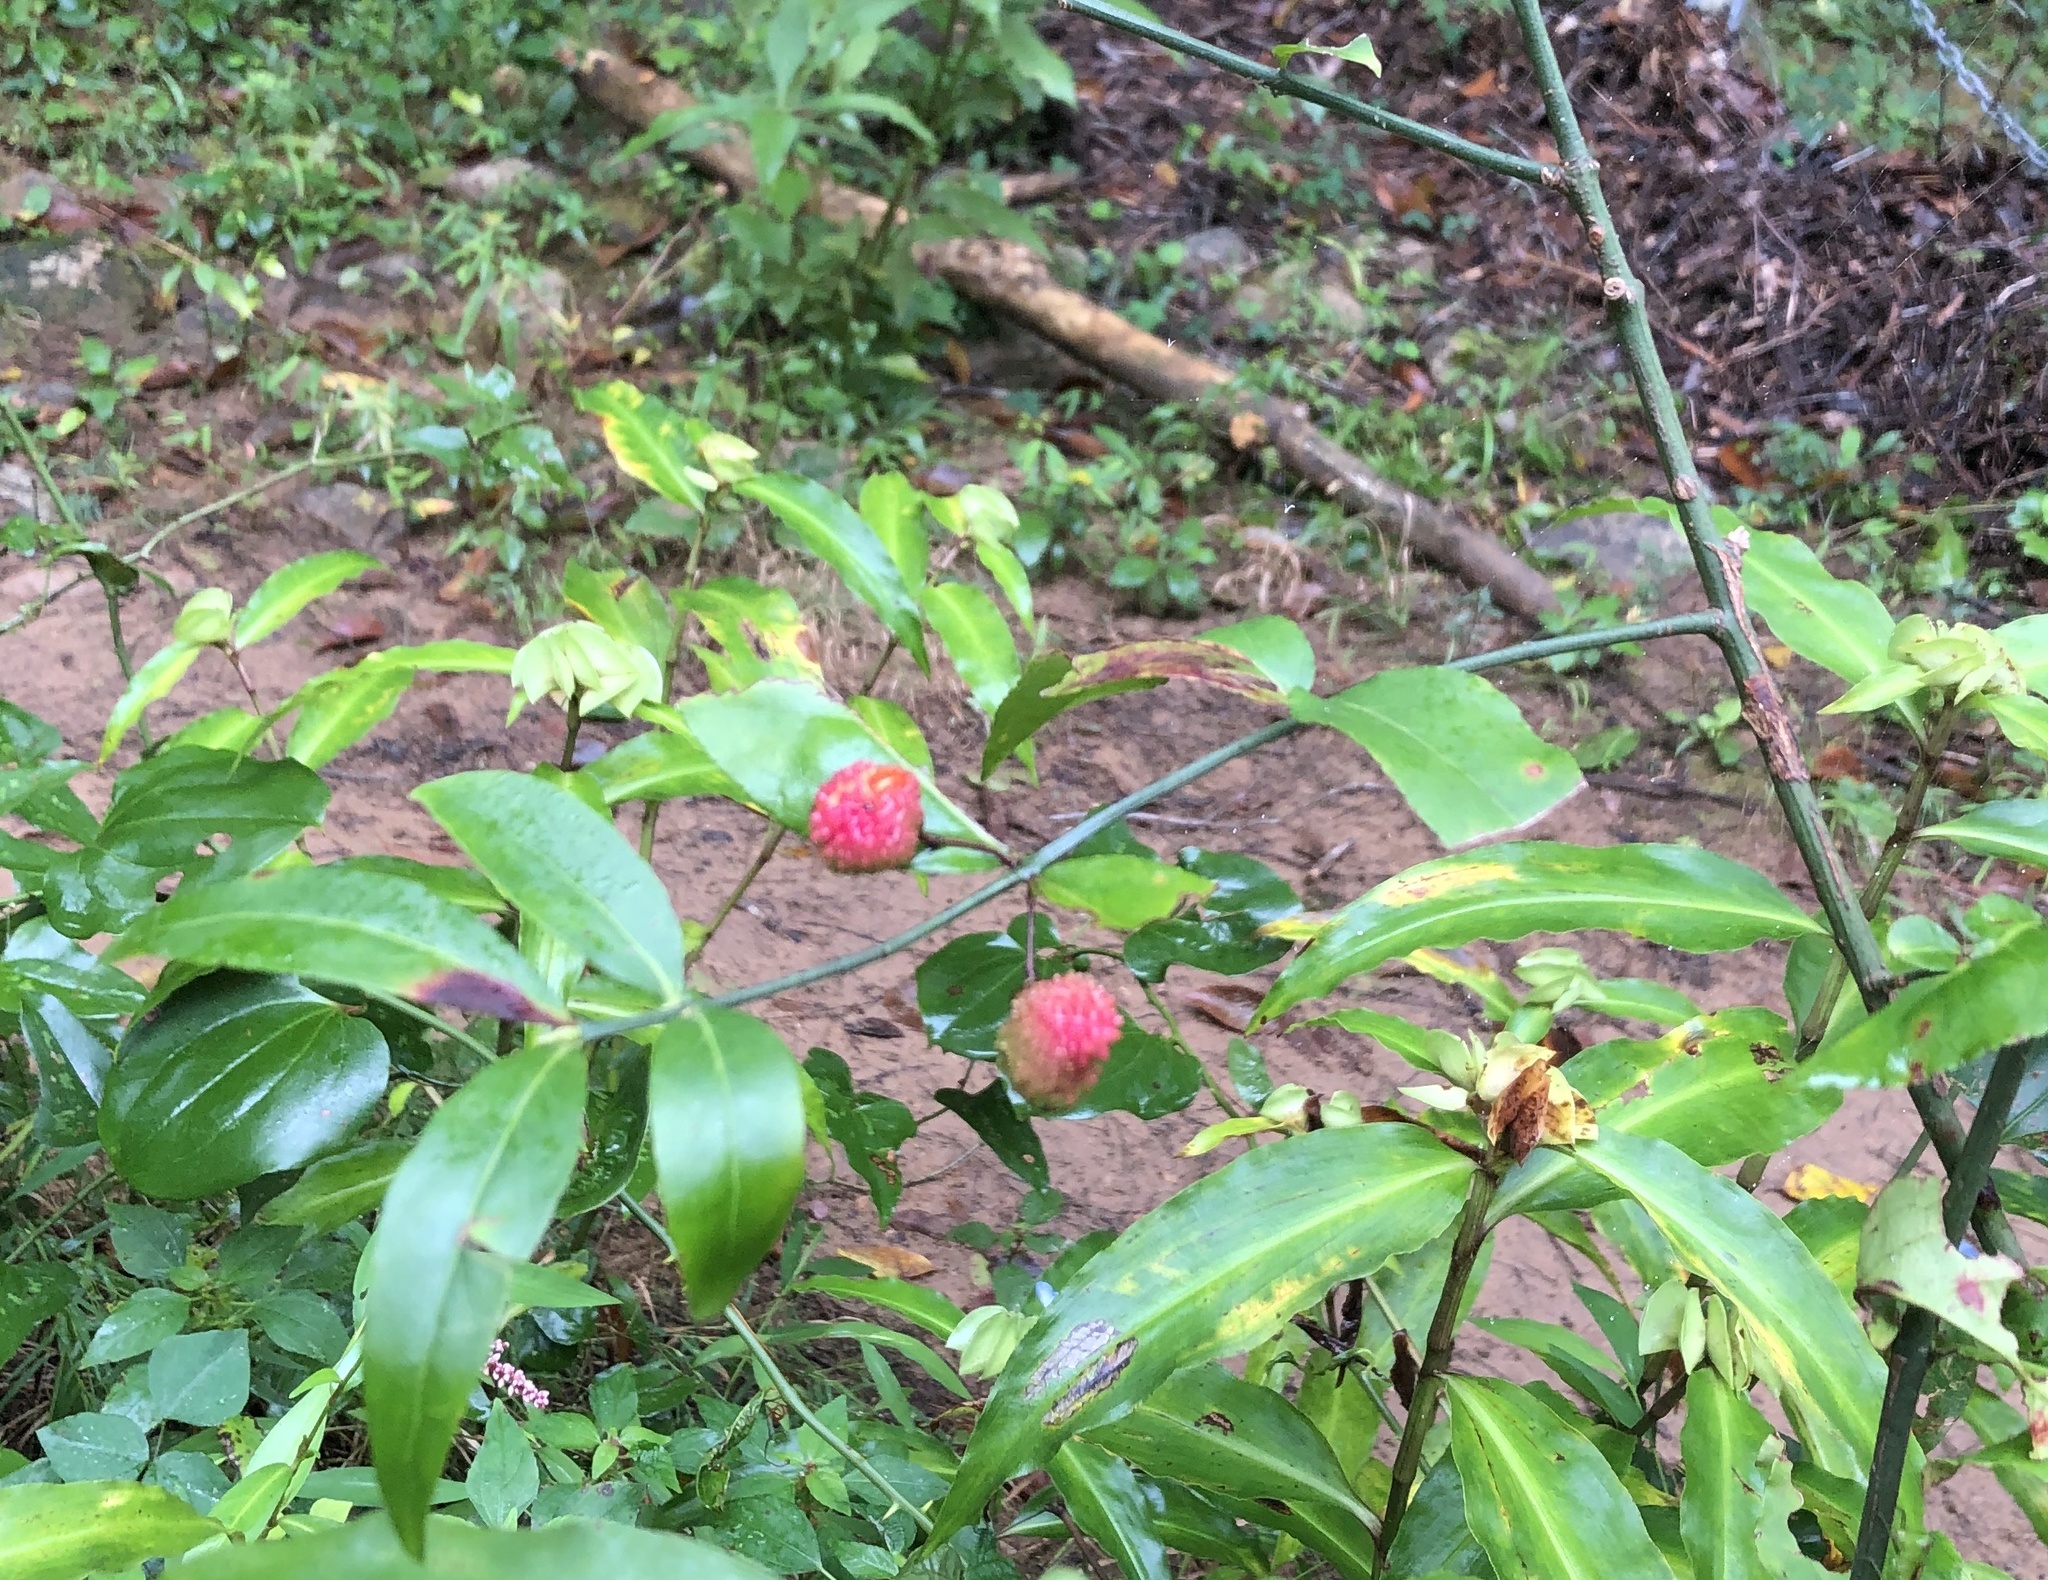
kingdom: Plantae
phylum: Tracheophyta
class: Magnoliopsida
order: Celastrales
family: Celastraceae
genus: Euonymus
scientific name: Euonymus americanus
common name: Bursting-heart
